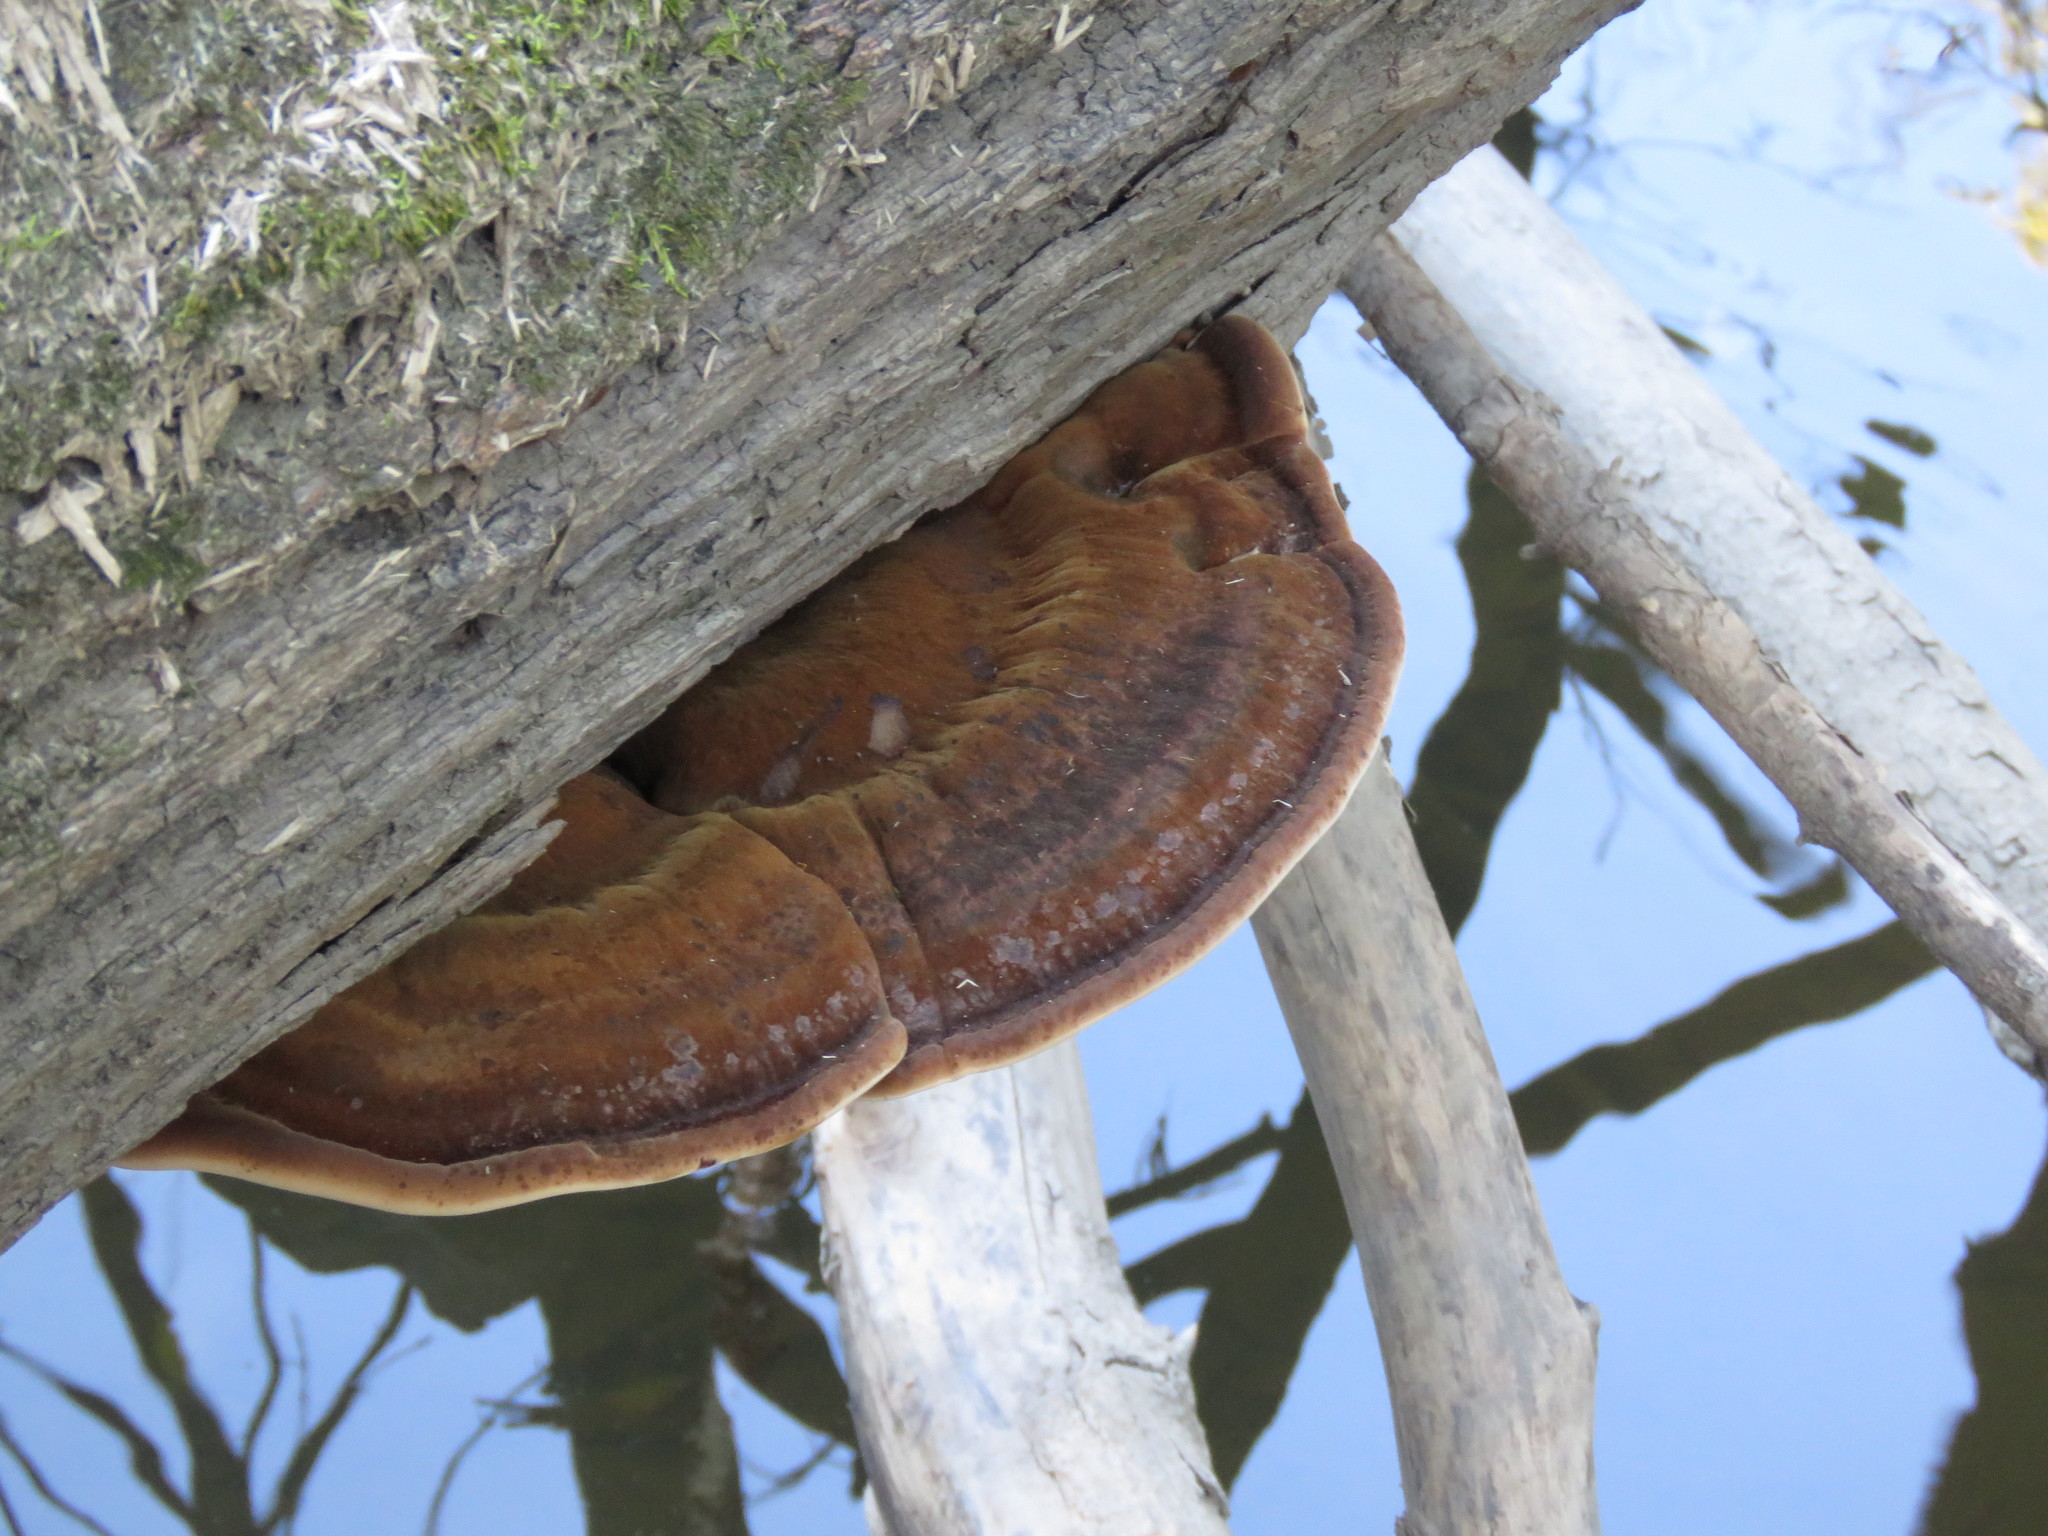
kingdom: Fungi
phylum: Basidiomycota
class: Agaricomycetes
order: Polyporales
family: Ischnodermataceae
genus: Ischnoderma
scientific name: Ischnoderma resinosum
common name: Resinous polypore
